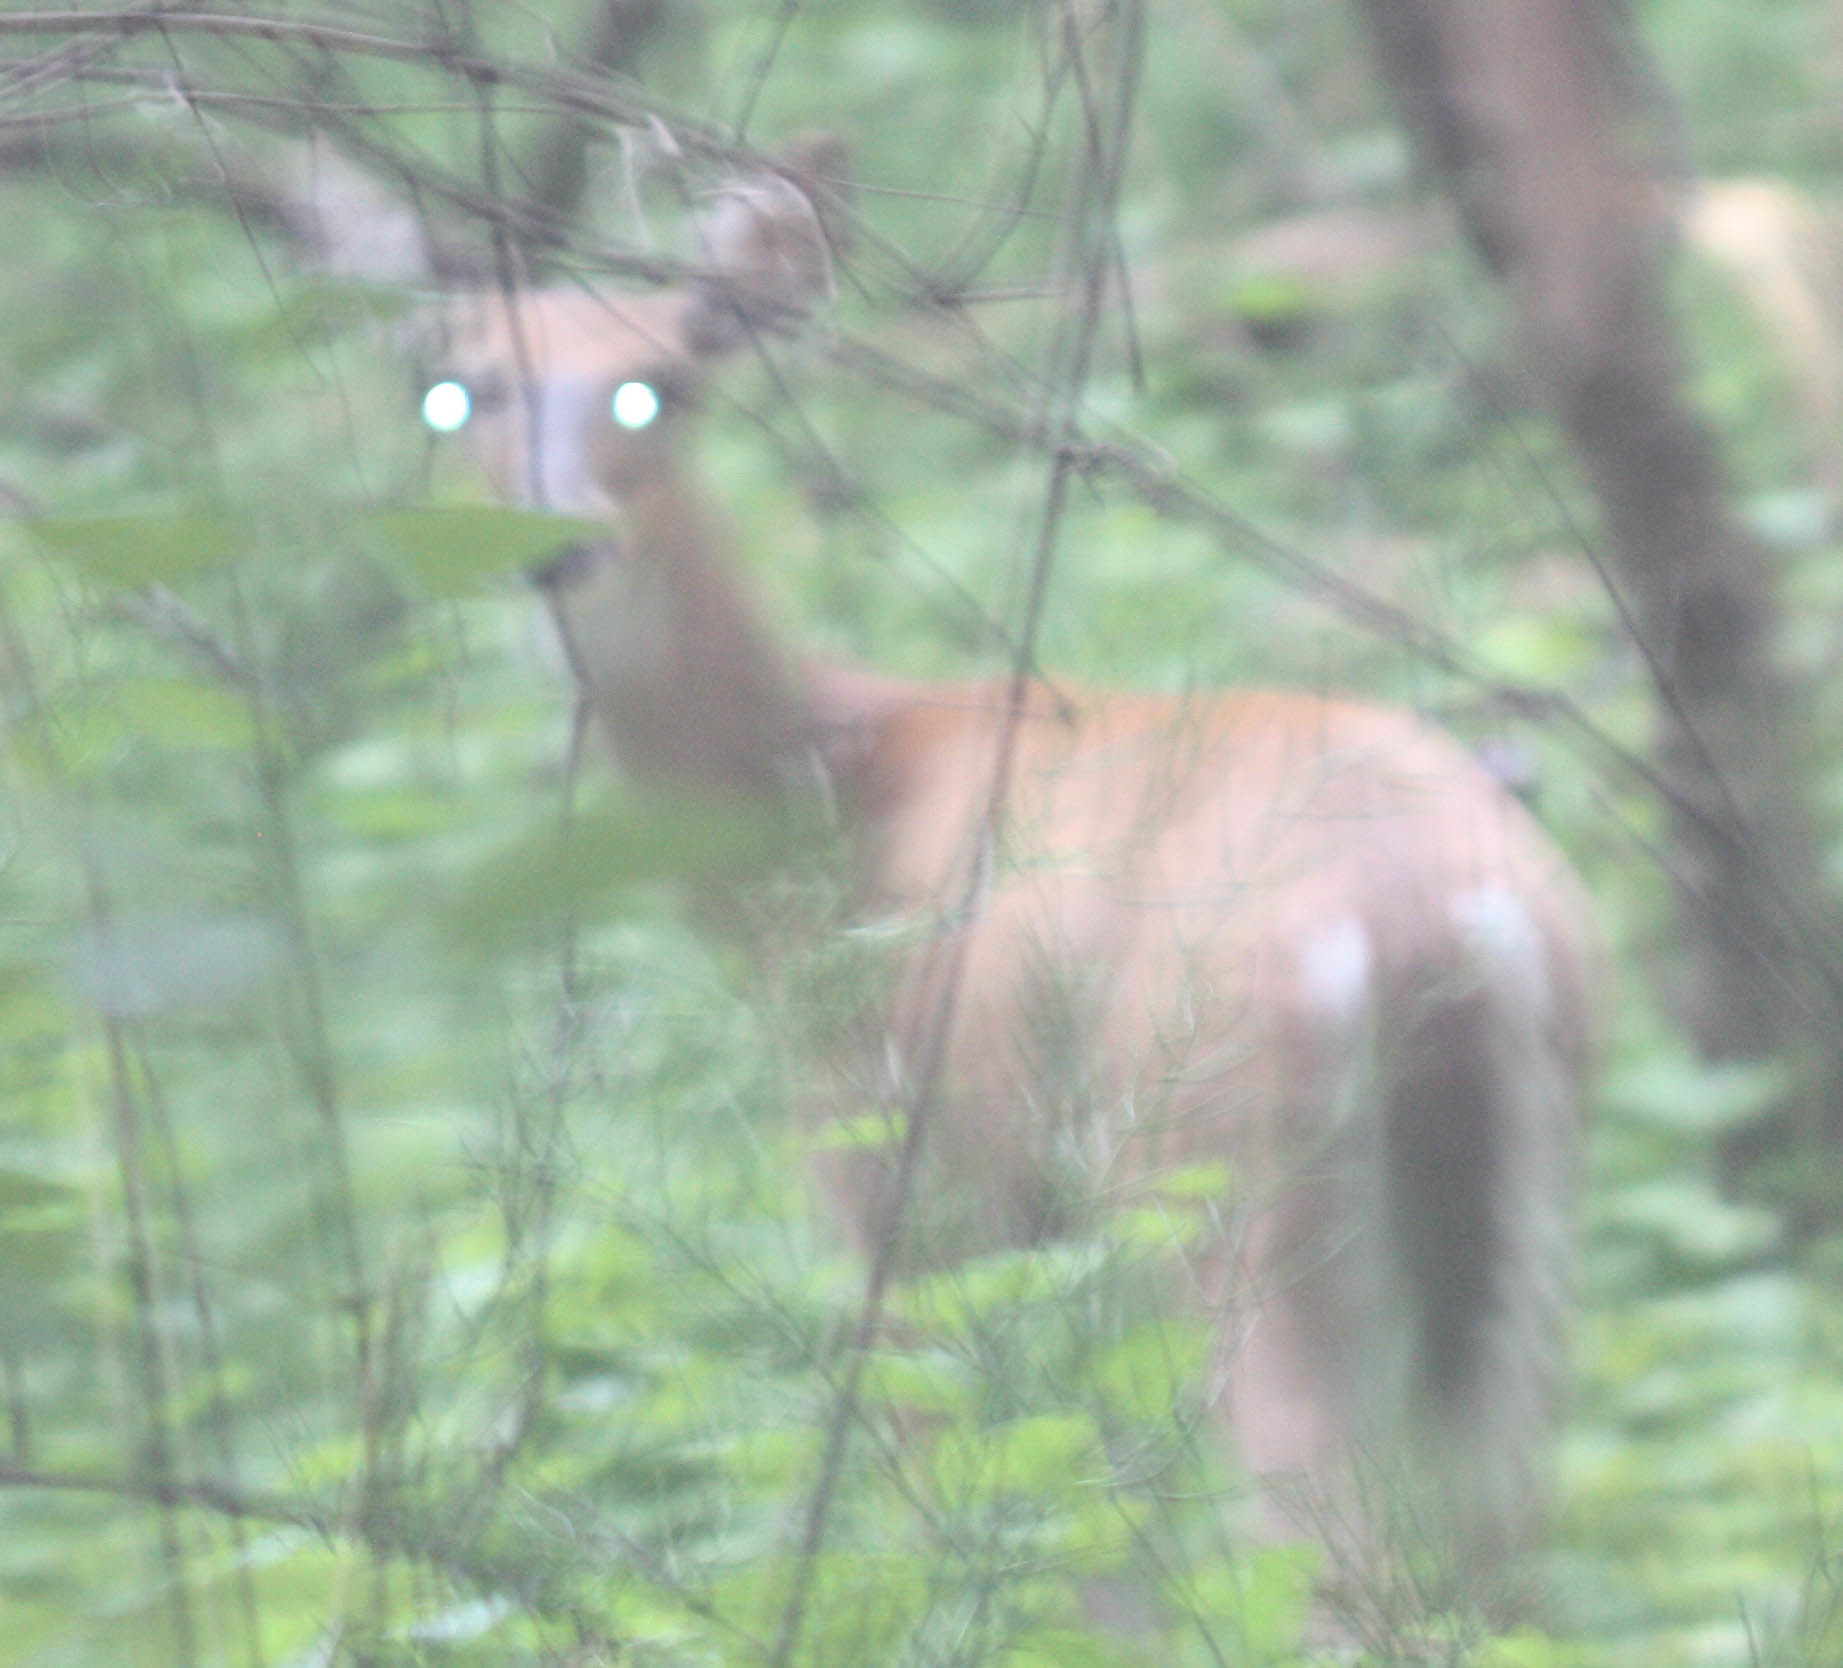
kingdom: Animalia
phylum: Chordata
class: Mammalia
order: Artiodactyla
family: Cervidae
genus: Odocoileus
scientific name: Odocoileus virginianus
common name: White-tailed deer
